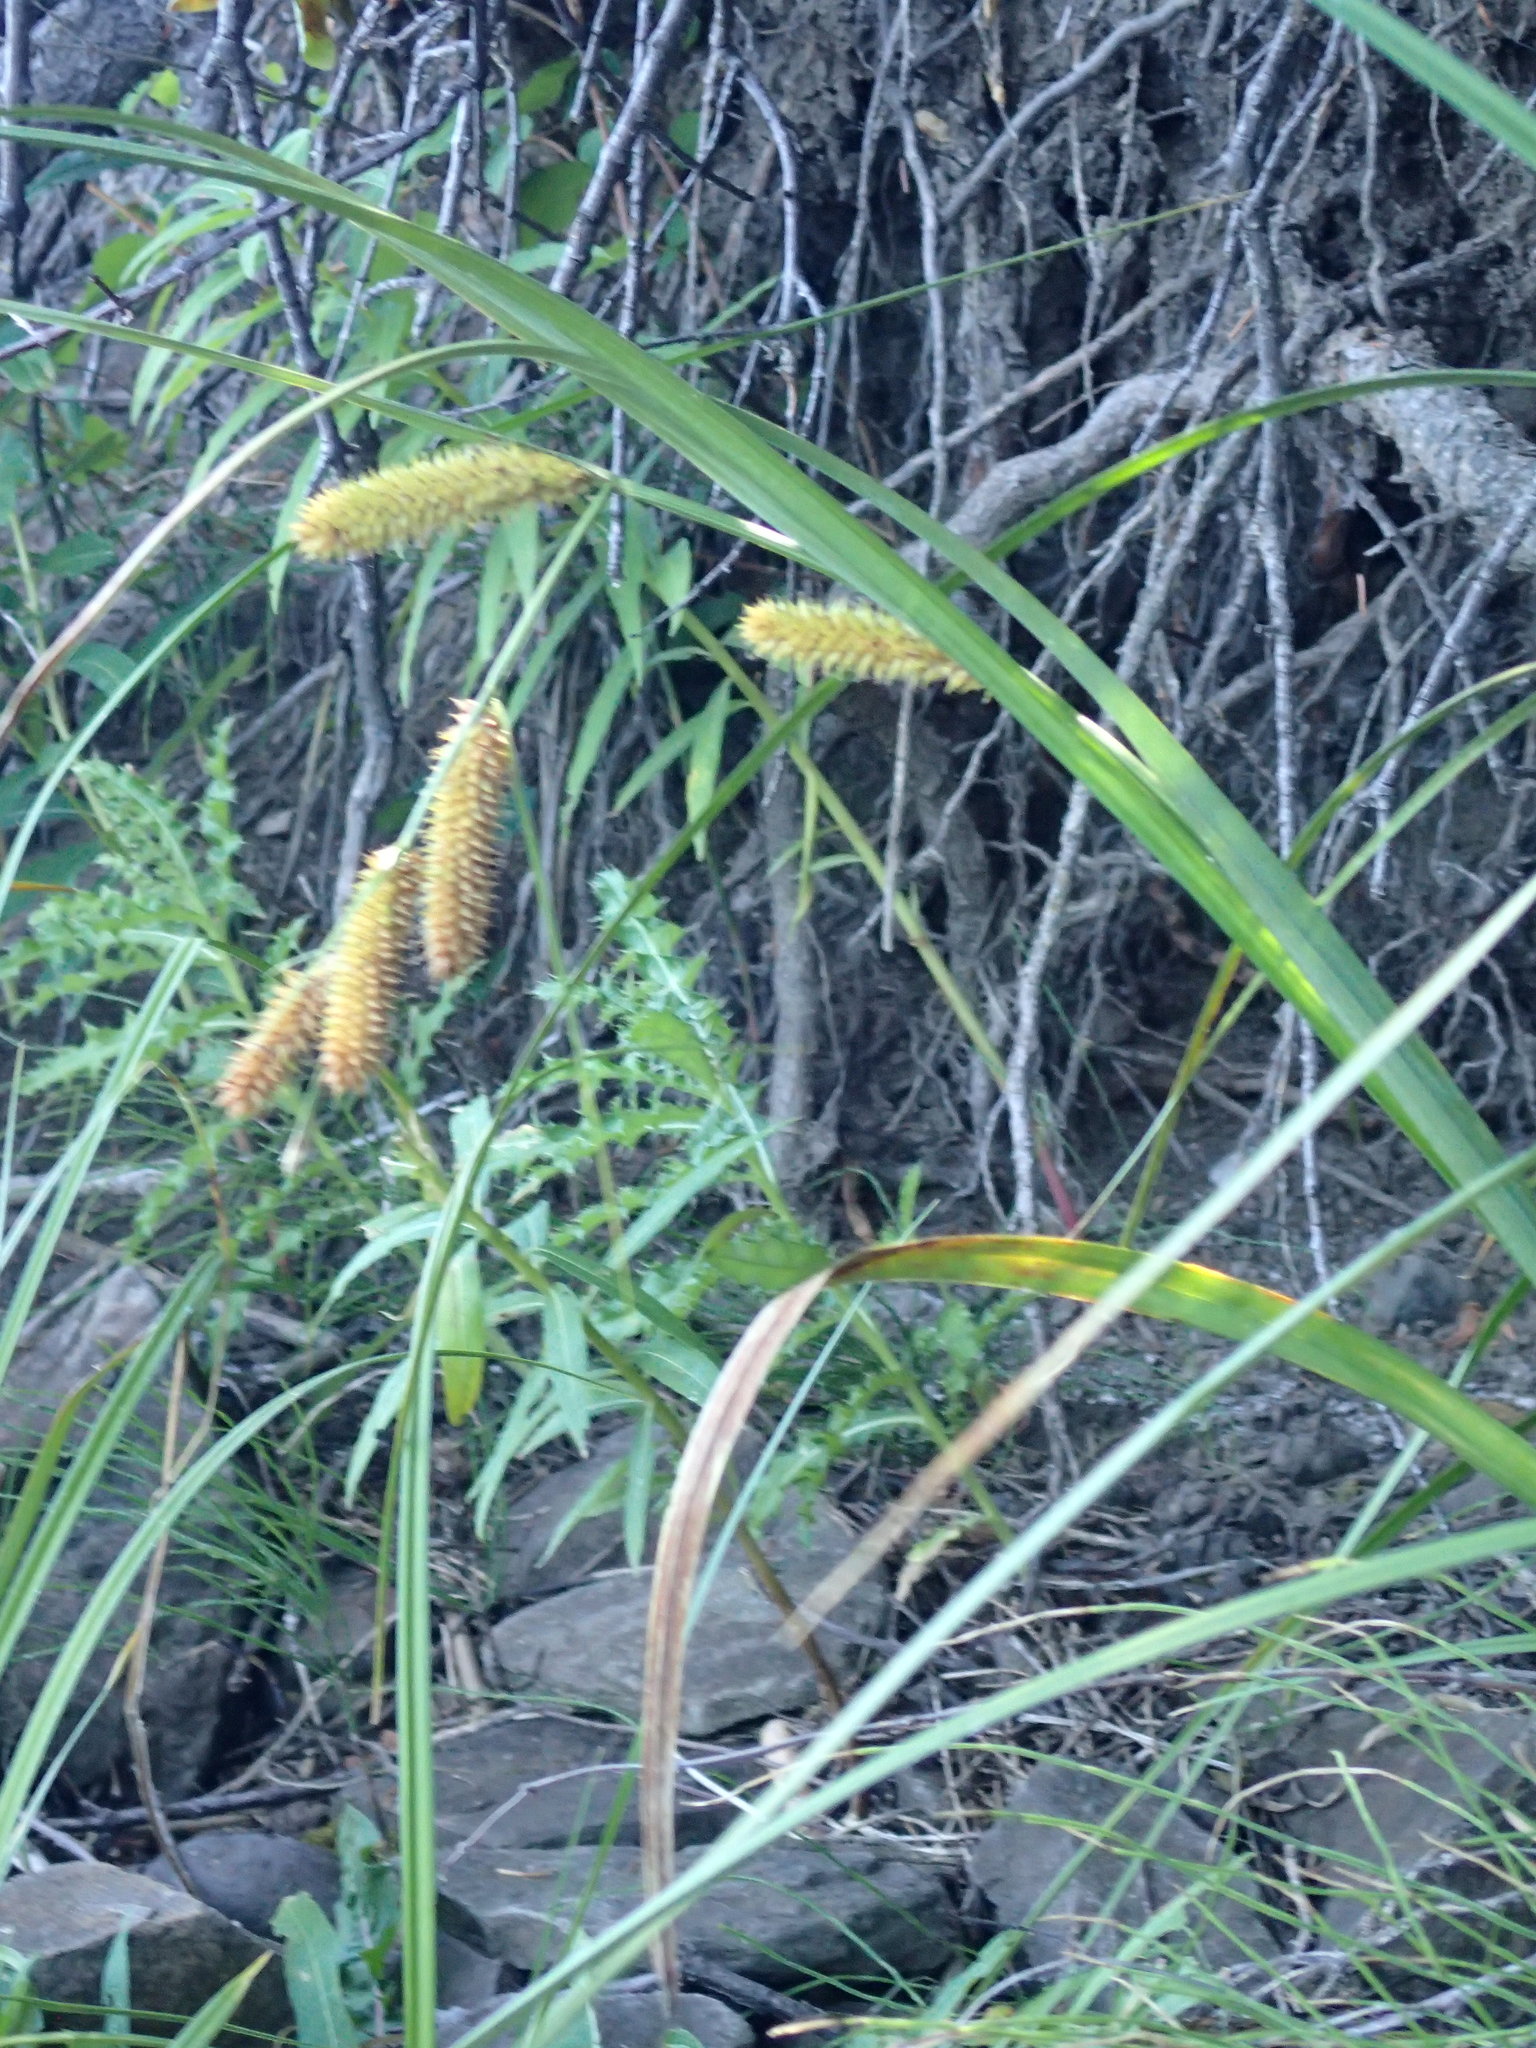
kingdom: Plantae
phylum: Tracheophyta
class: Liliopsida
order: Poales
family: Cyperaceae
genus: Carex
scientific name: Carex utriculata
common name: Beaked sedge
